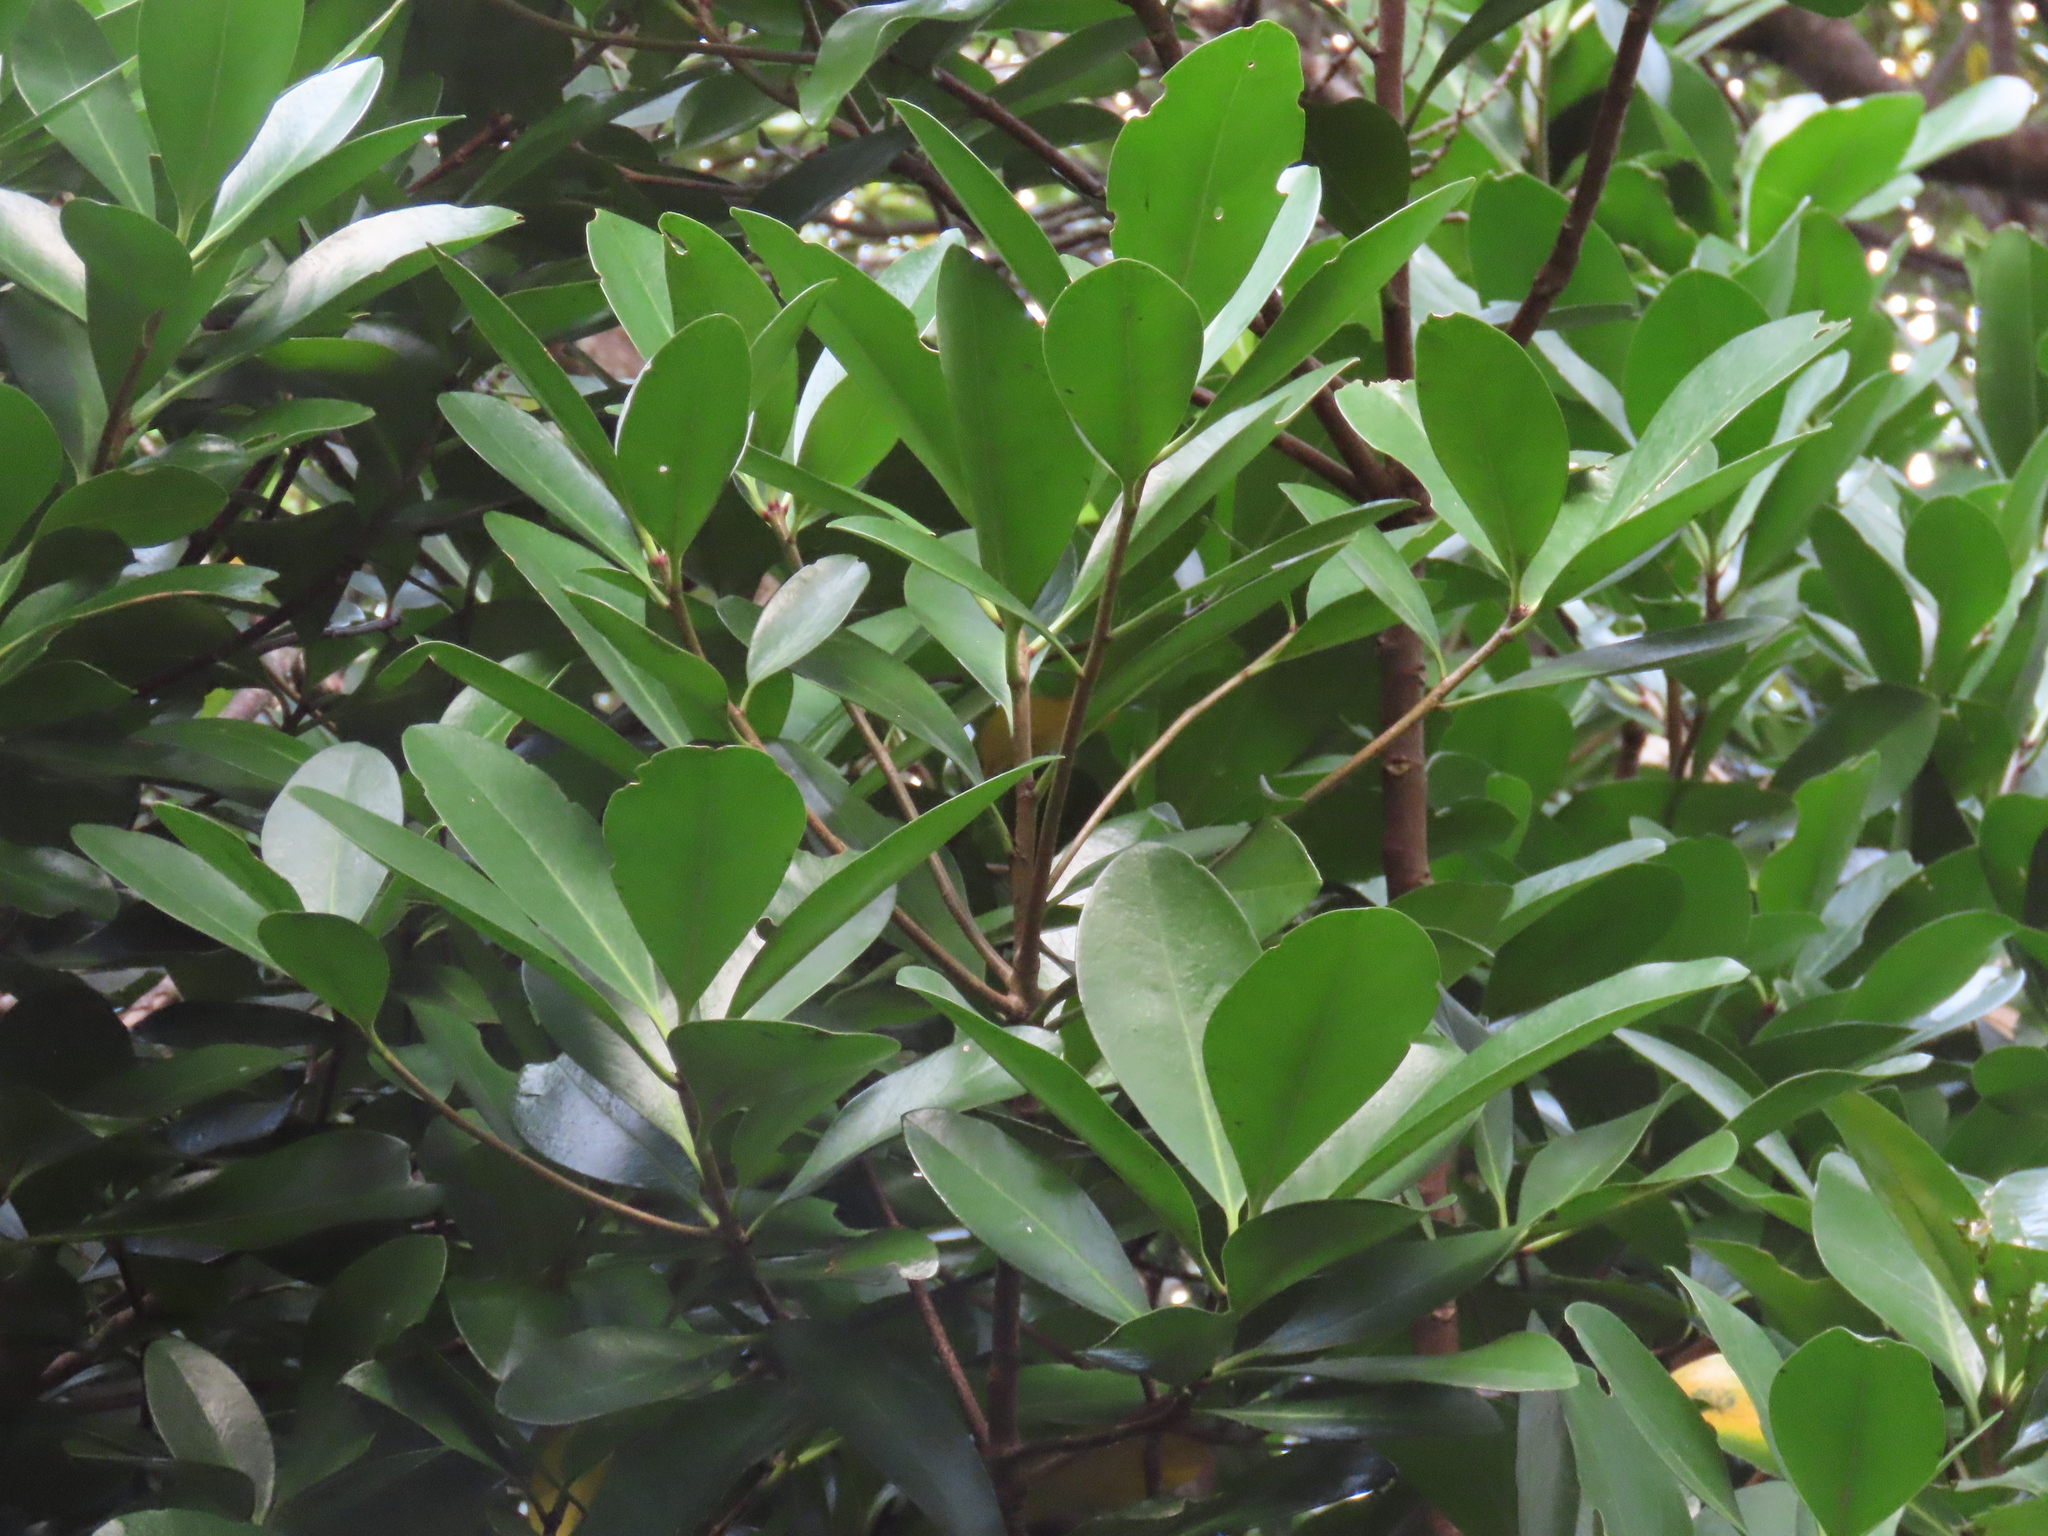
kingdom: Plantae
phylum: Tracheophyta
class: Magnoliopsida
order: Cucurbitales
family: Corynocarpaceae
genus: Corynocarpus
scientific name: Corynocarpus laevigatus
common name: New zealand laurel
